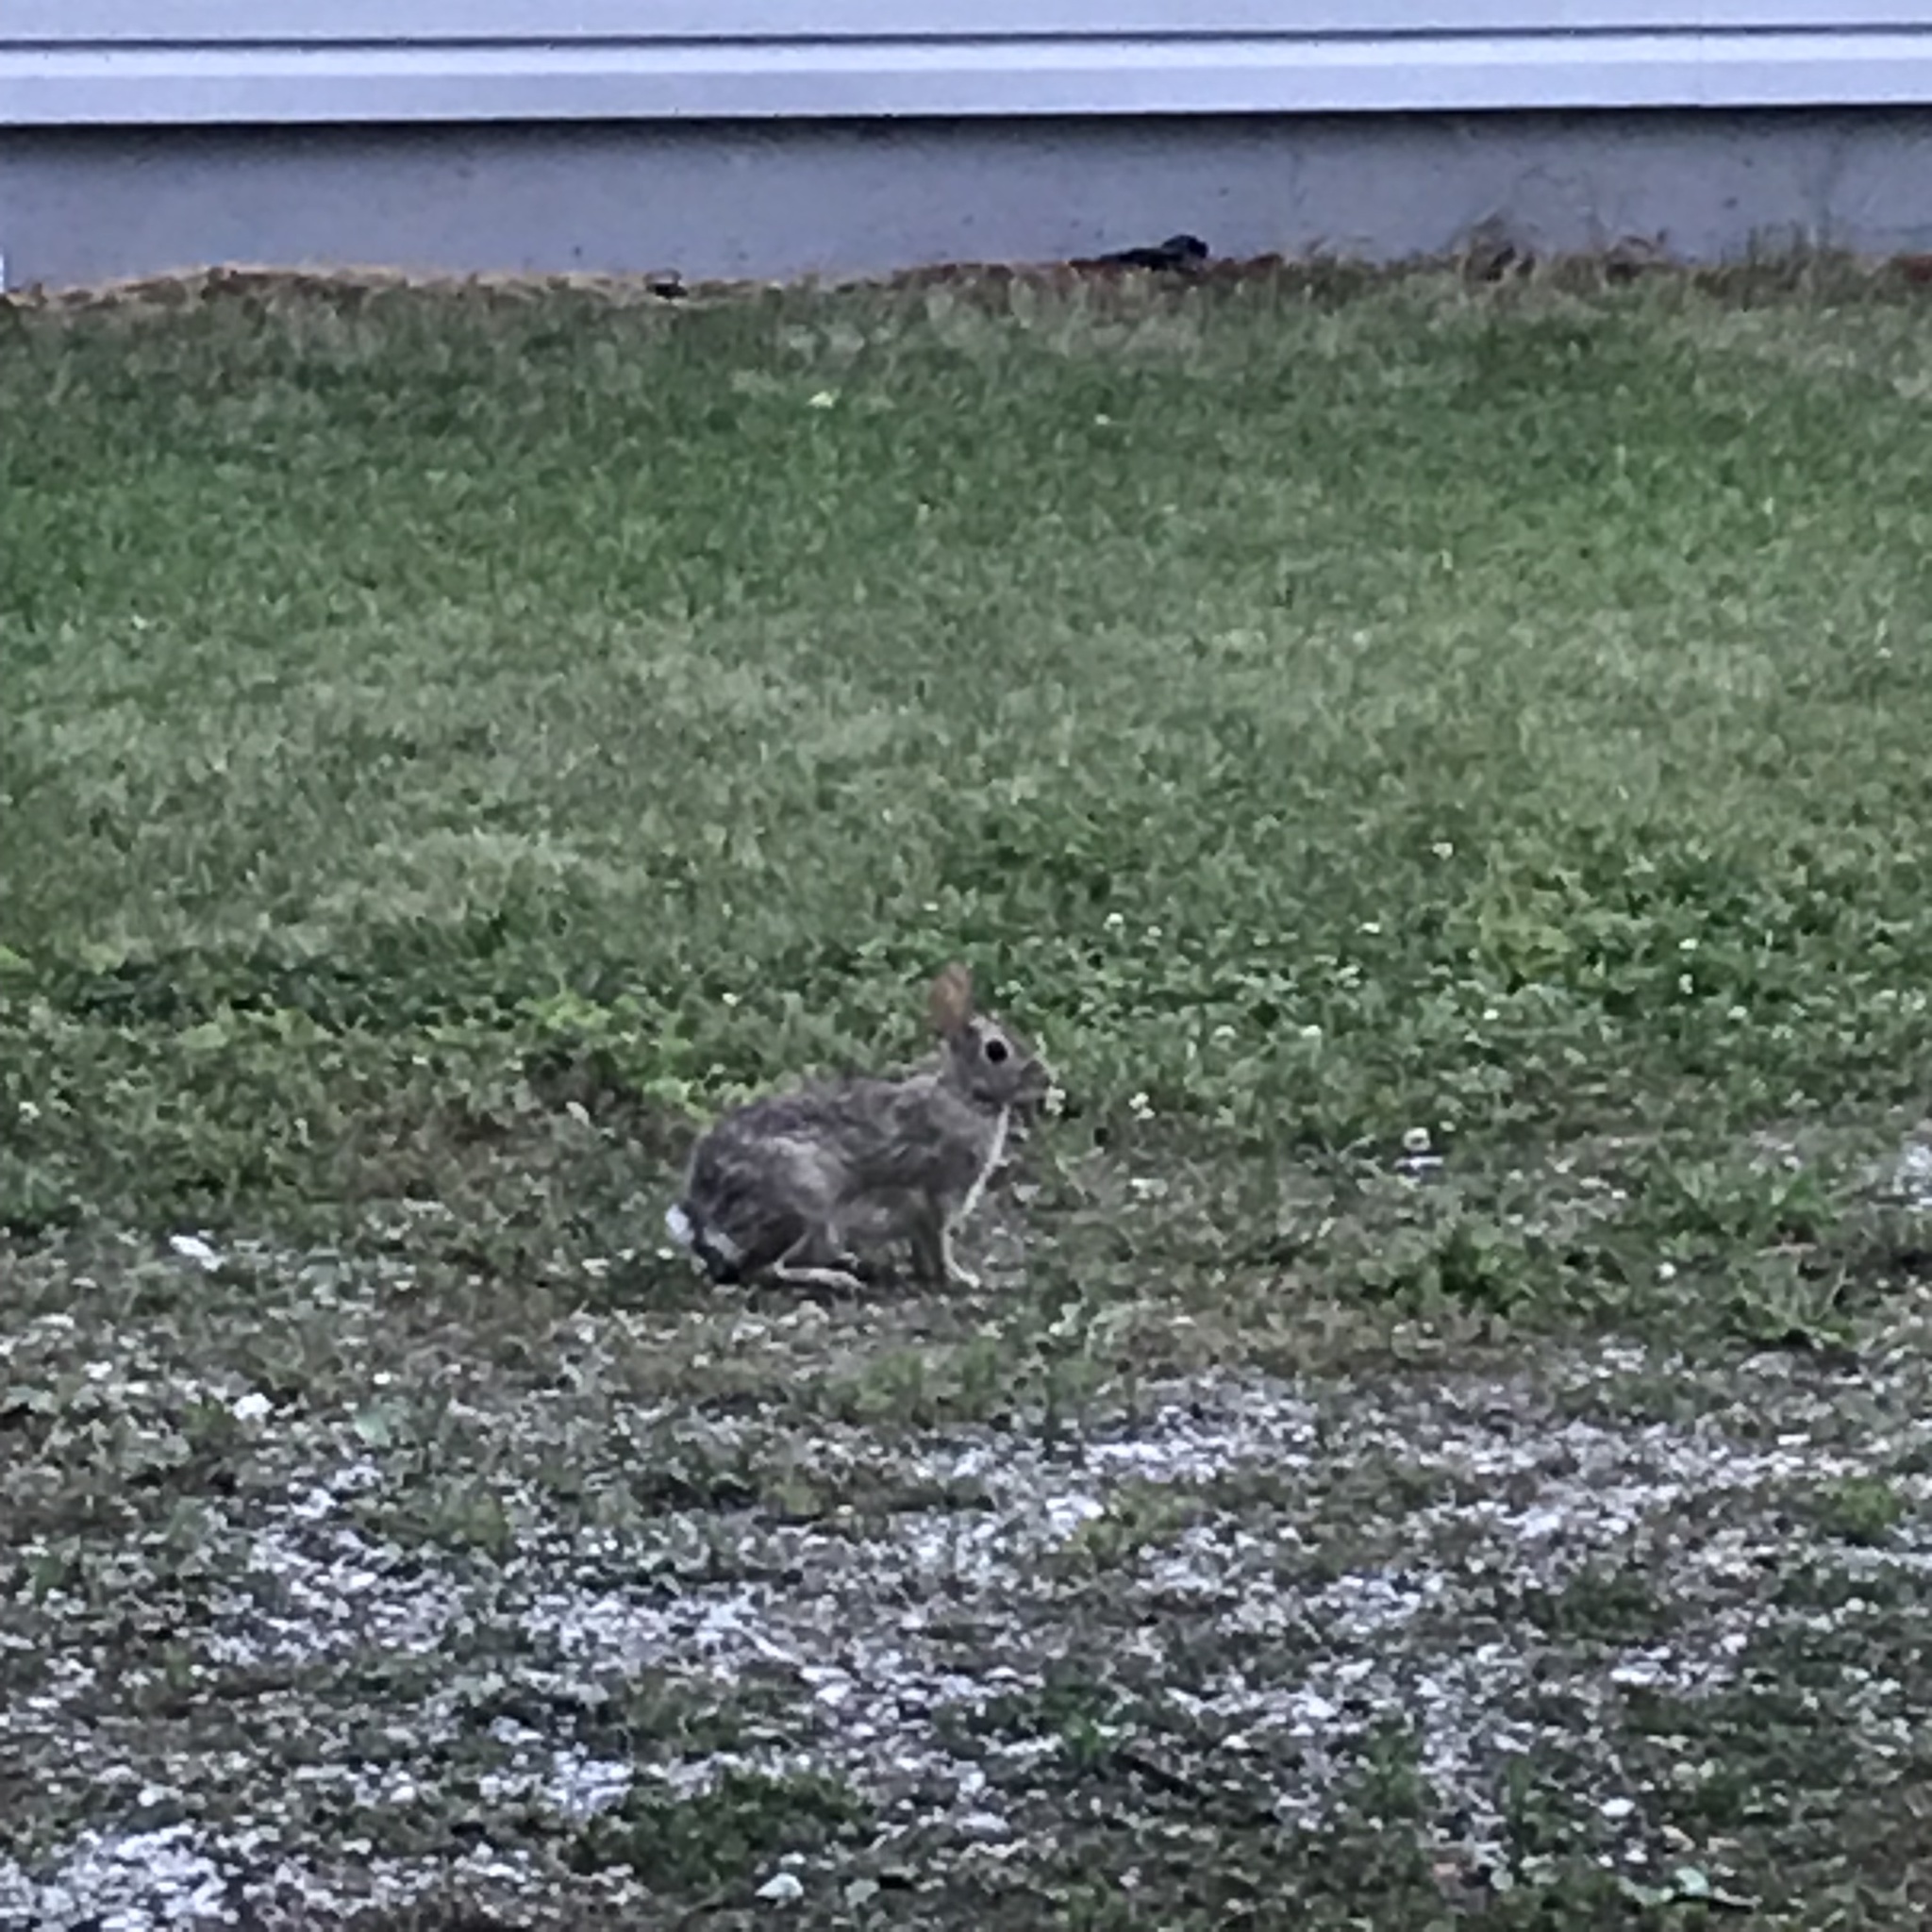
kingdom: Animalia
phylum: Chordata
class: Mammalia
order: Lagomorpha
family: Leporidae
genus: Sylvilagus
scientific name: Sylvilagus floridanus
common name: Eastern cottontail
